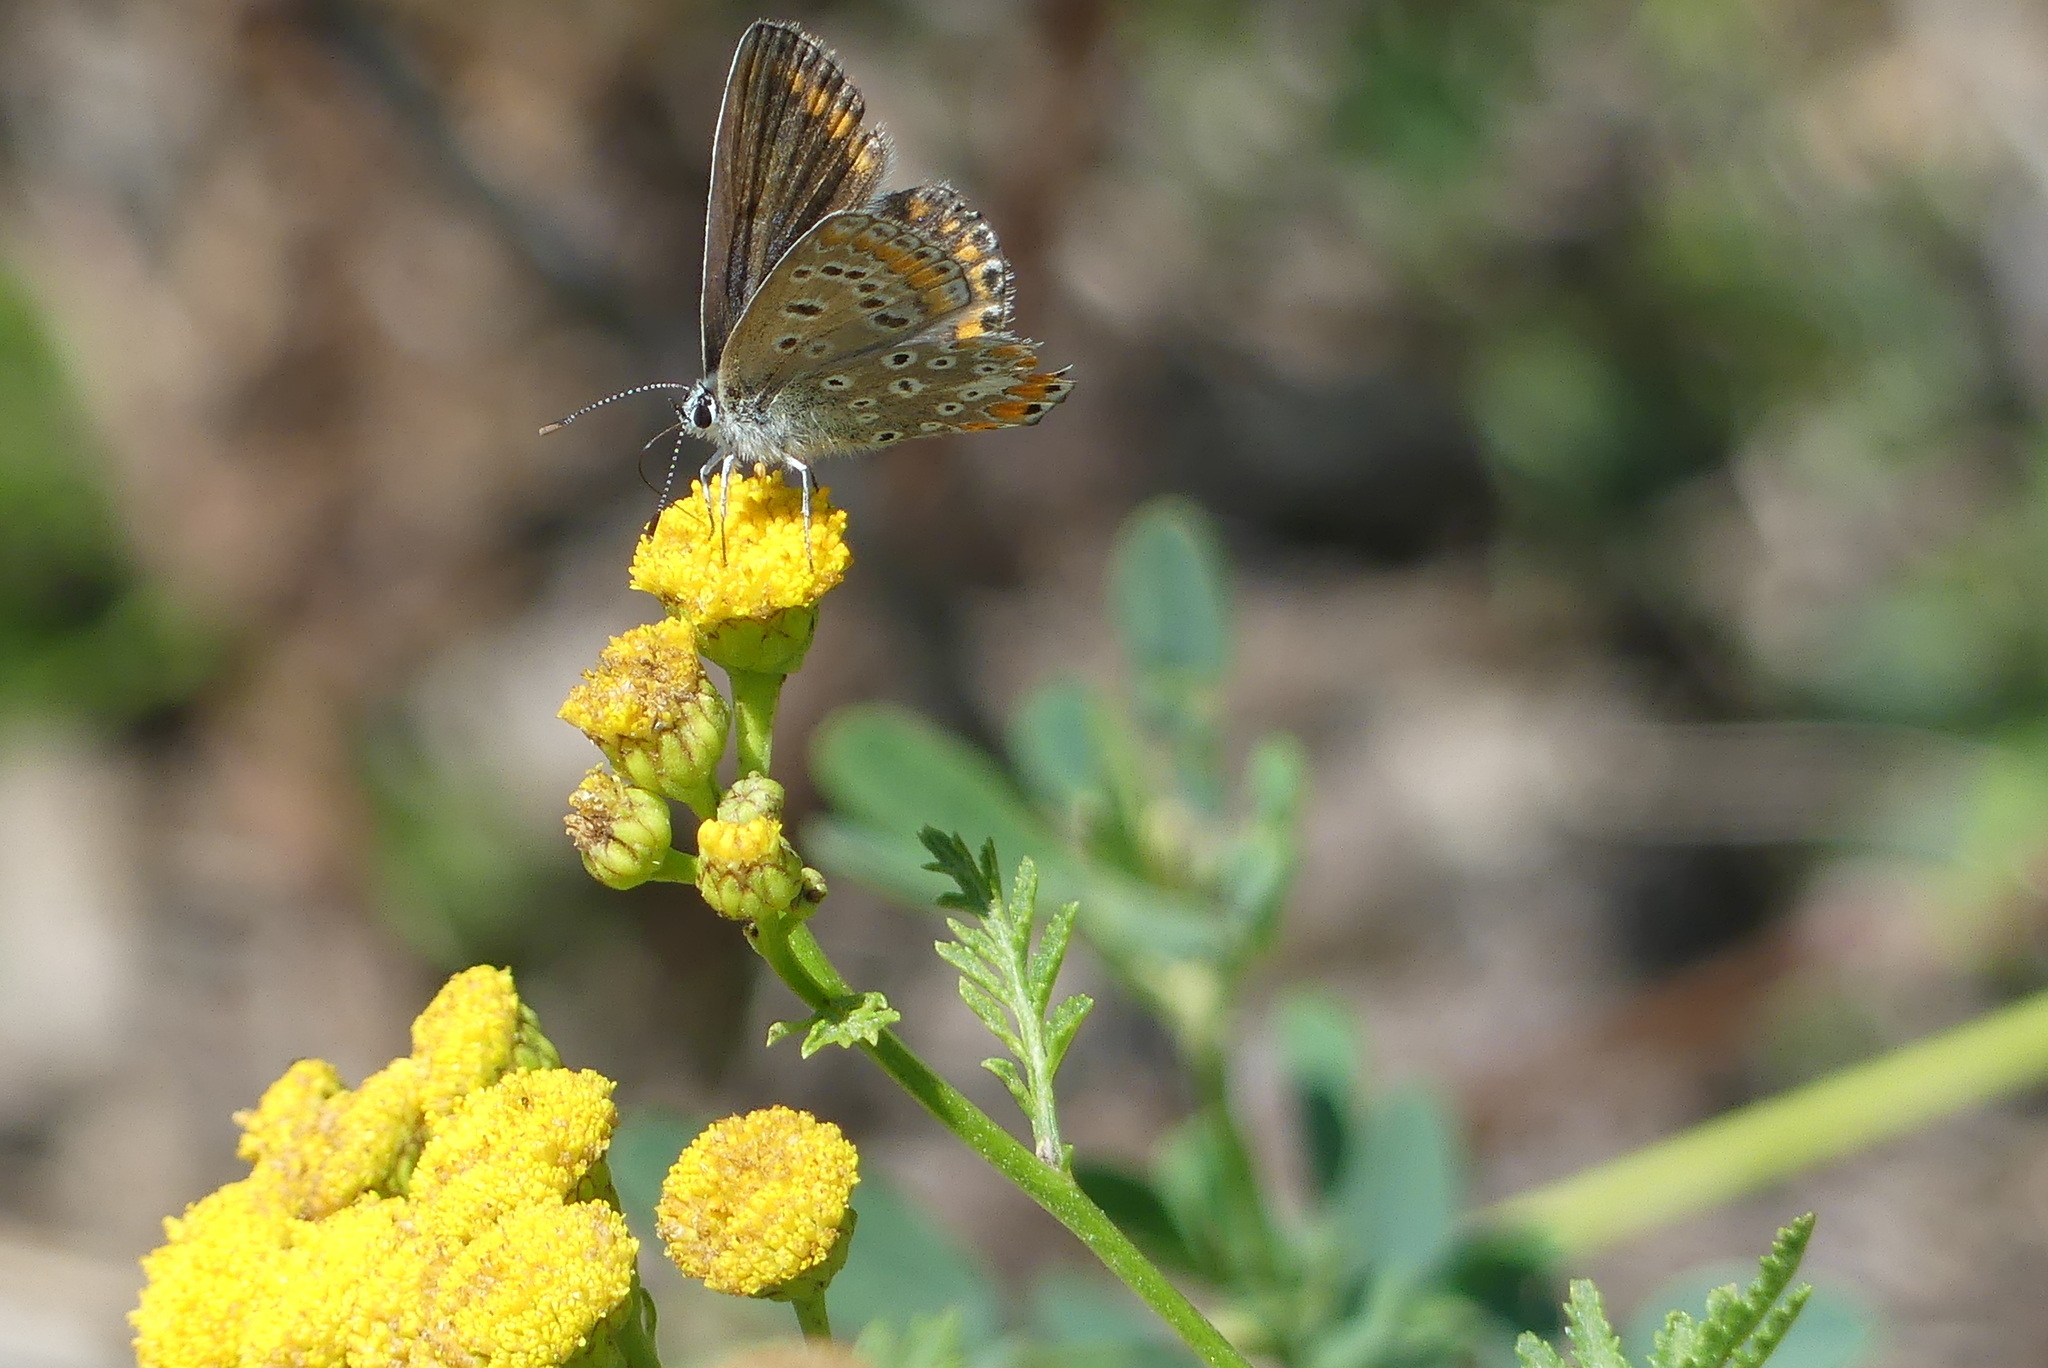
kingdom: Animalia
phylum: Arthropoda
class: Insecta
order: Lepidoptera
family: Lycaenidae
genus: Polyommatus
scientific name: Polyommatus icarus
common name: Common blue
